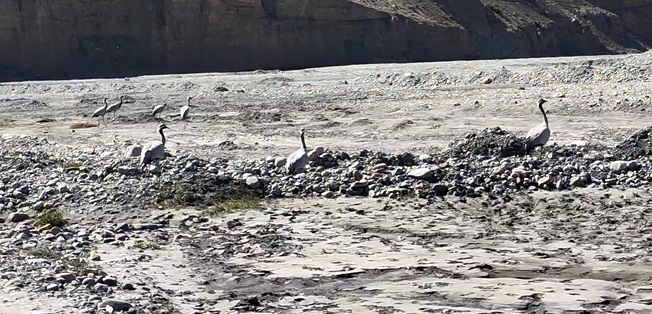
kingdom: Animalia
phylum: Chordata
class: Aves
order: Gruiformes
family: Gruidae
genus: Anthropoides
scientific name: Anthropoides virgo
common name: Demoiselle crane
